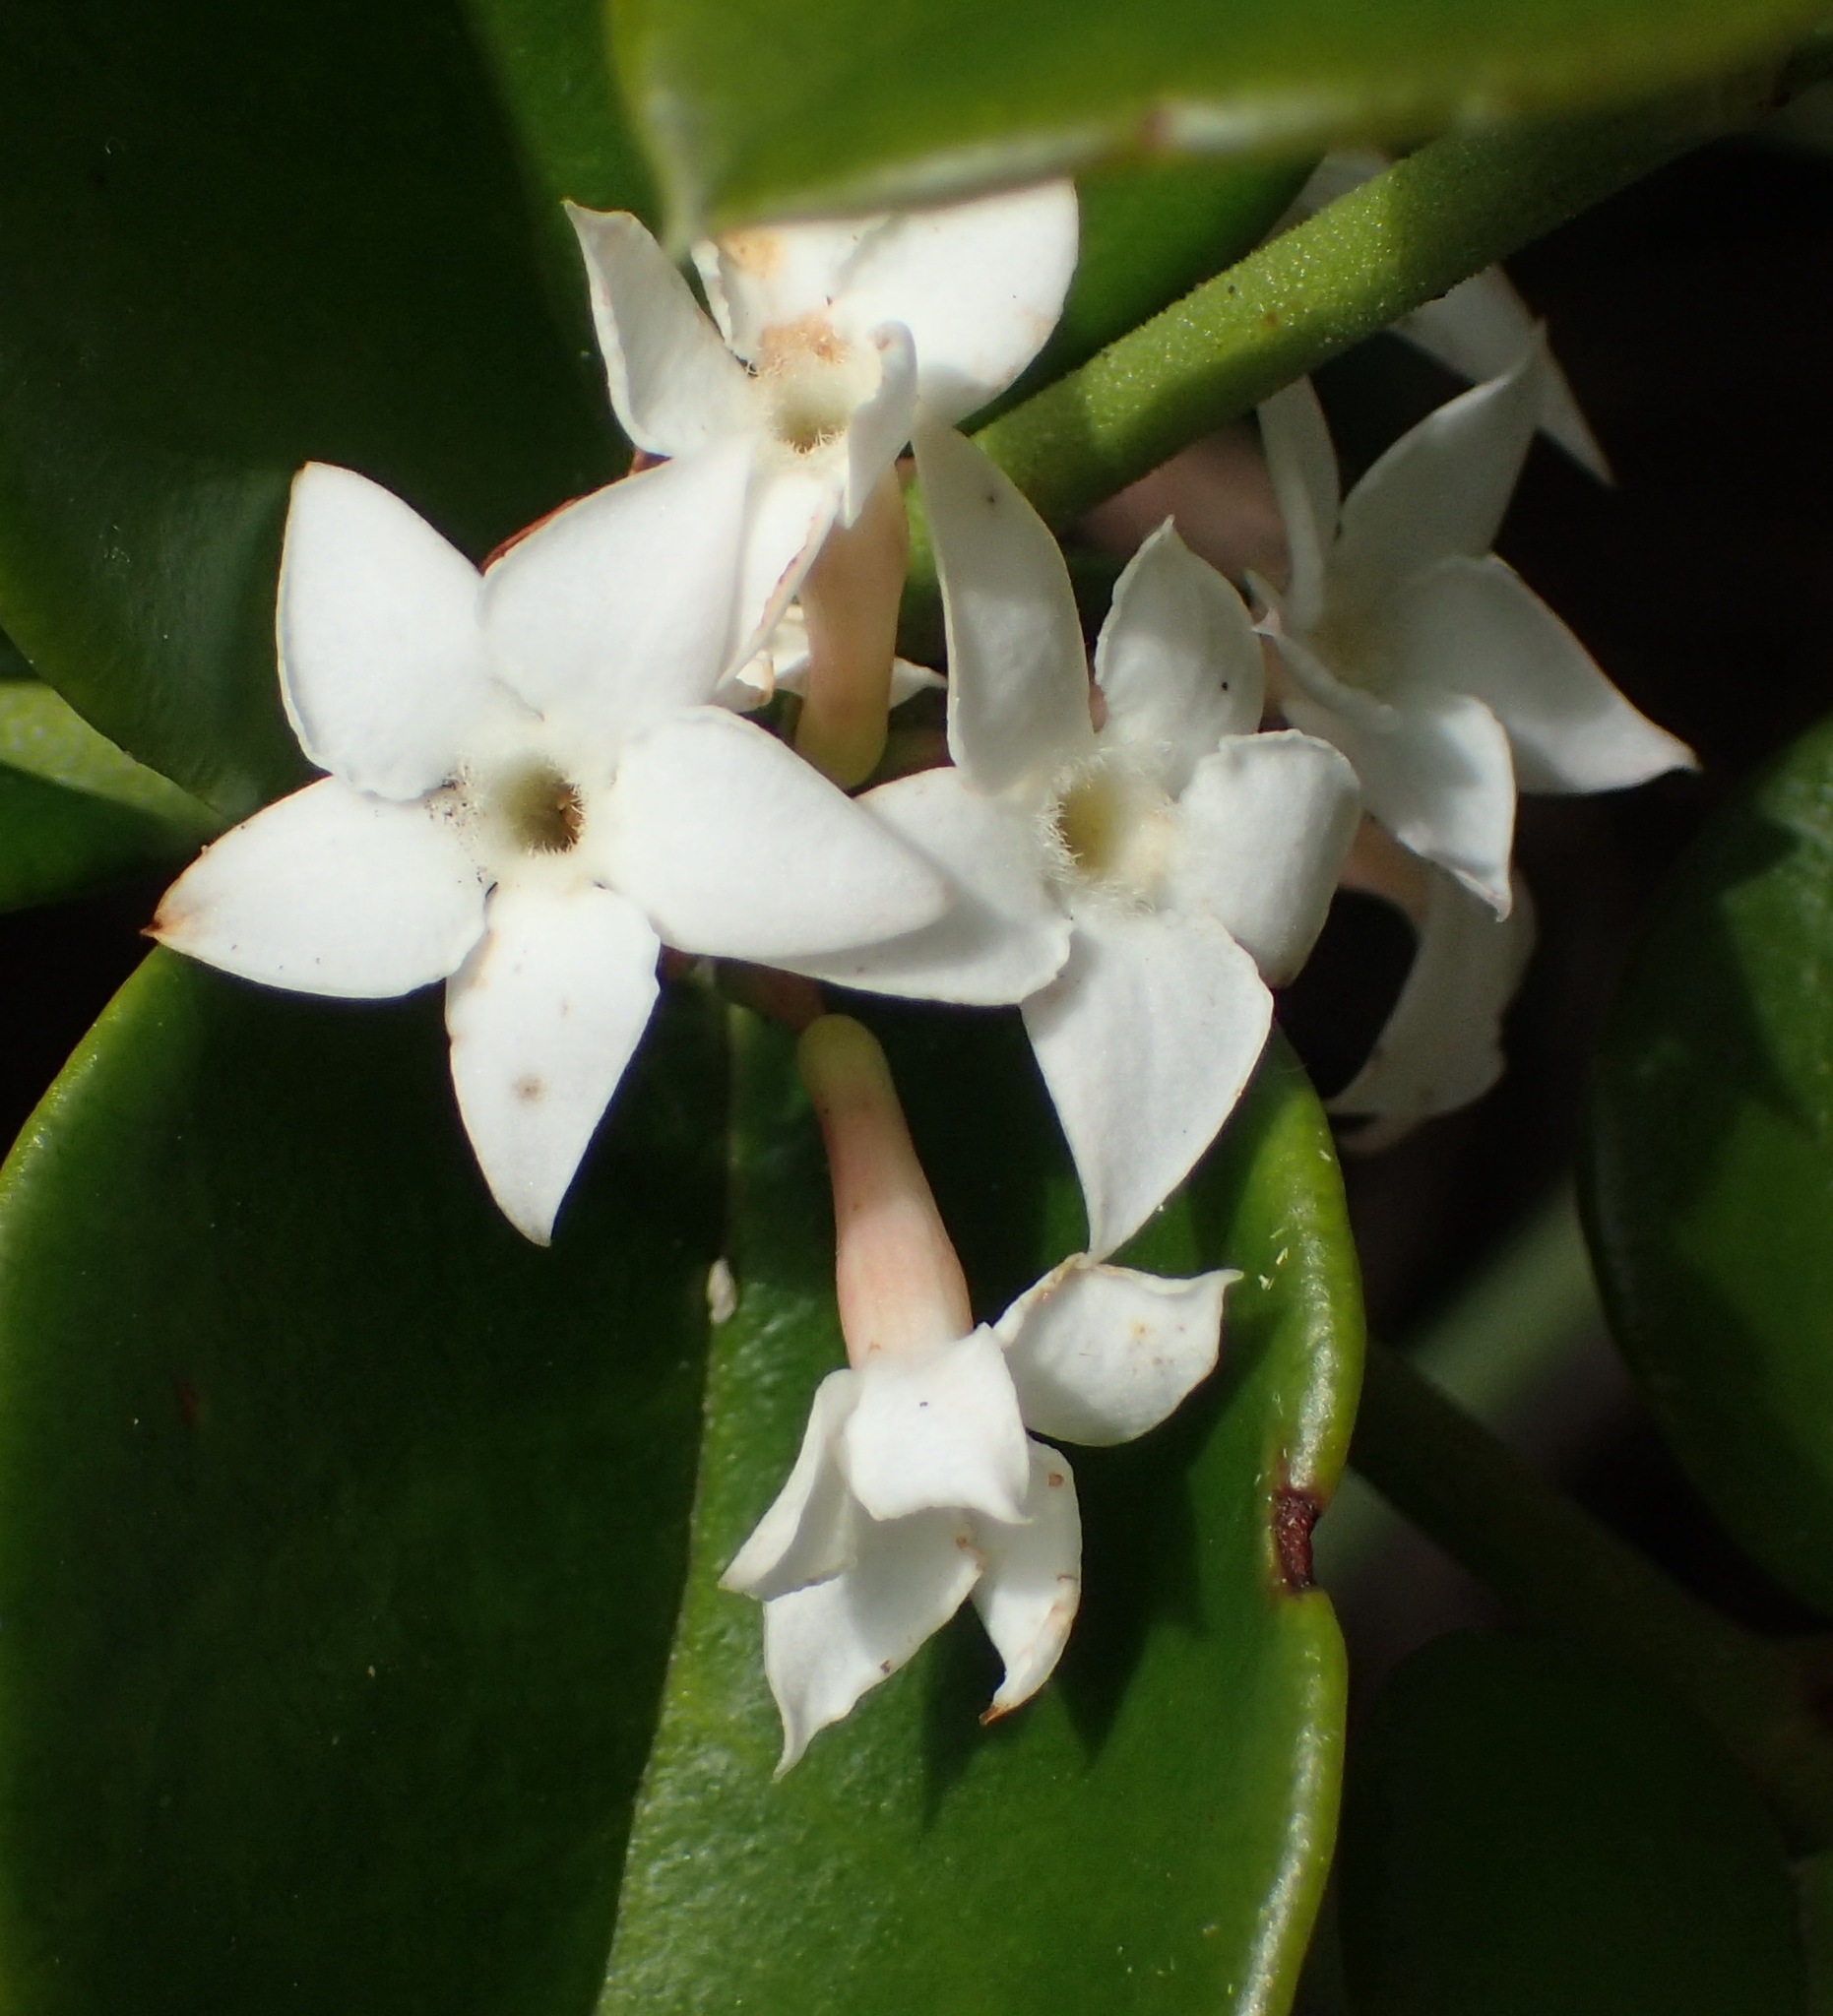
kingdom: Plantae
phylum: Tracheophyta
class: Magnoliopsida
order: Gentianales
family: Apocynaceae
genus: Carissa
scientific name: Carissa bispinosa
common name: Forest num-num
